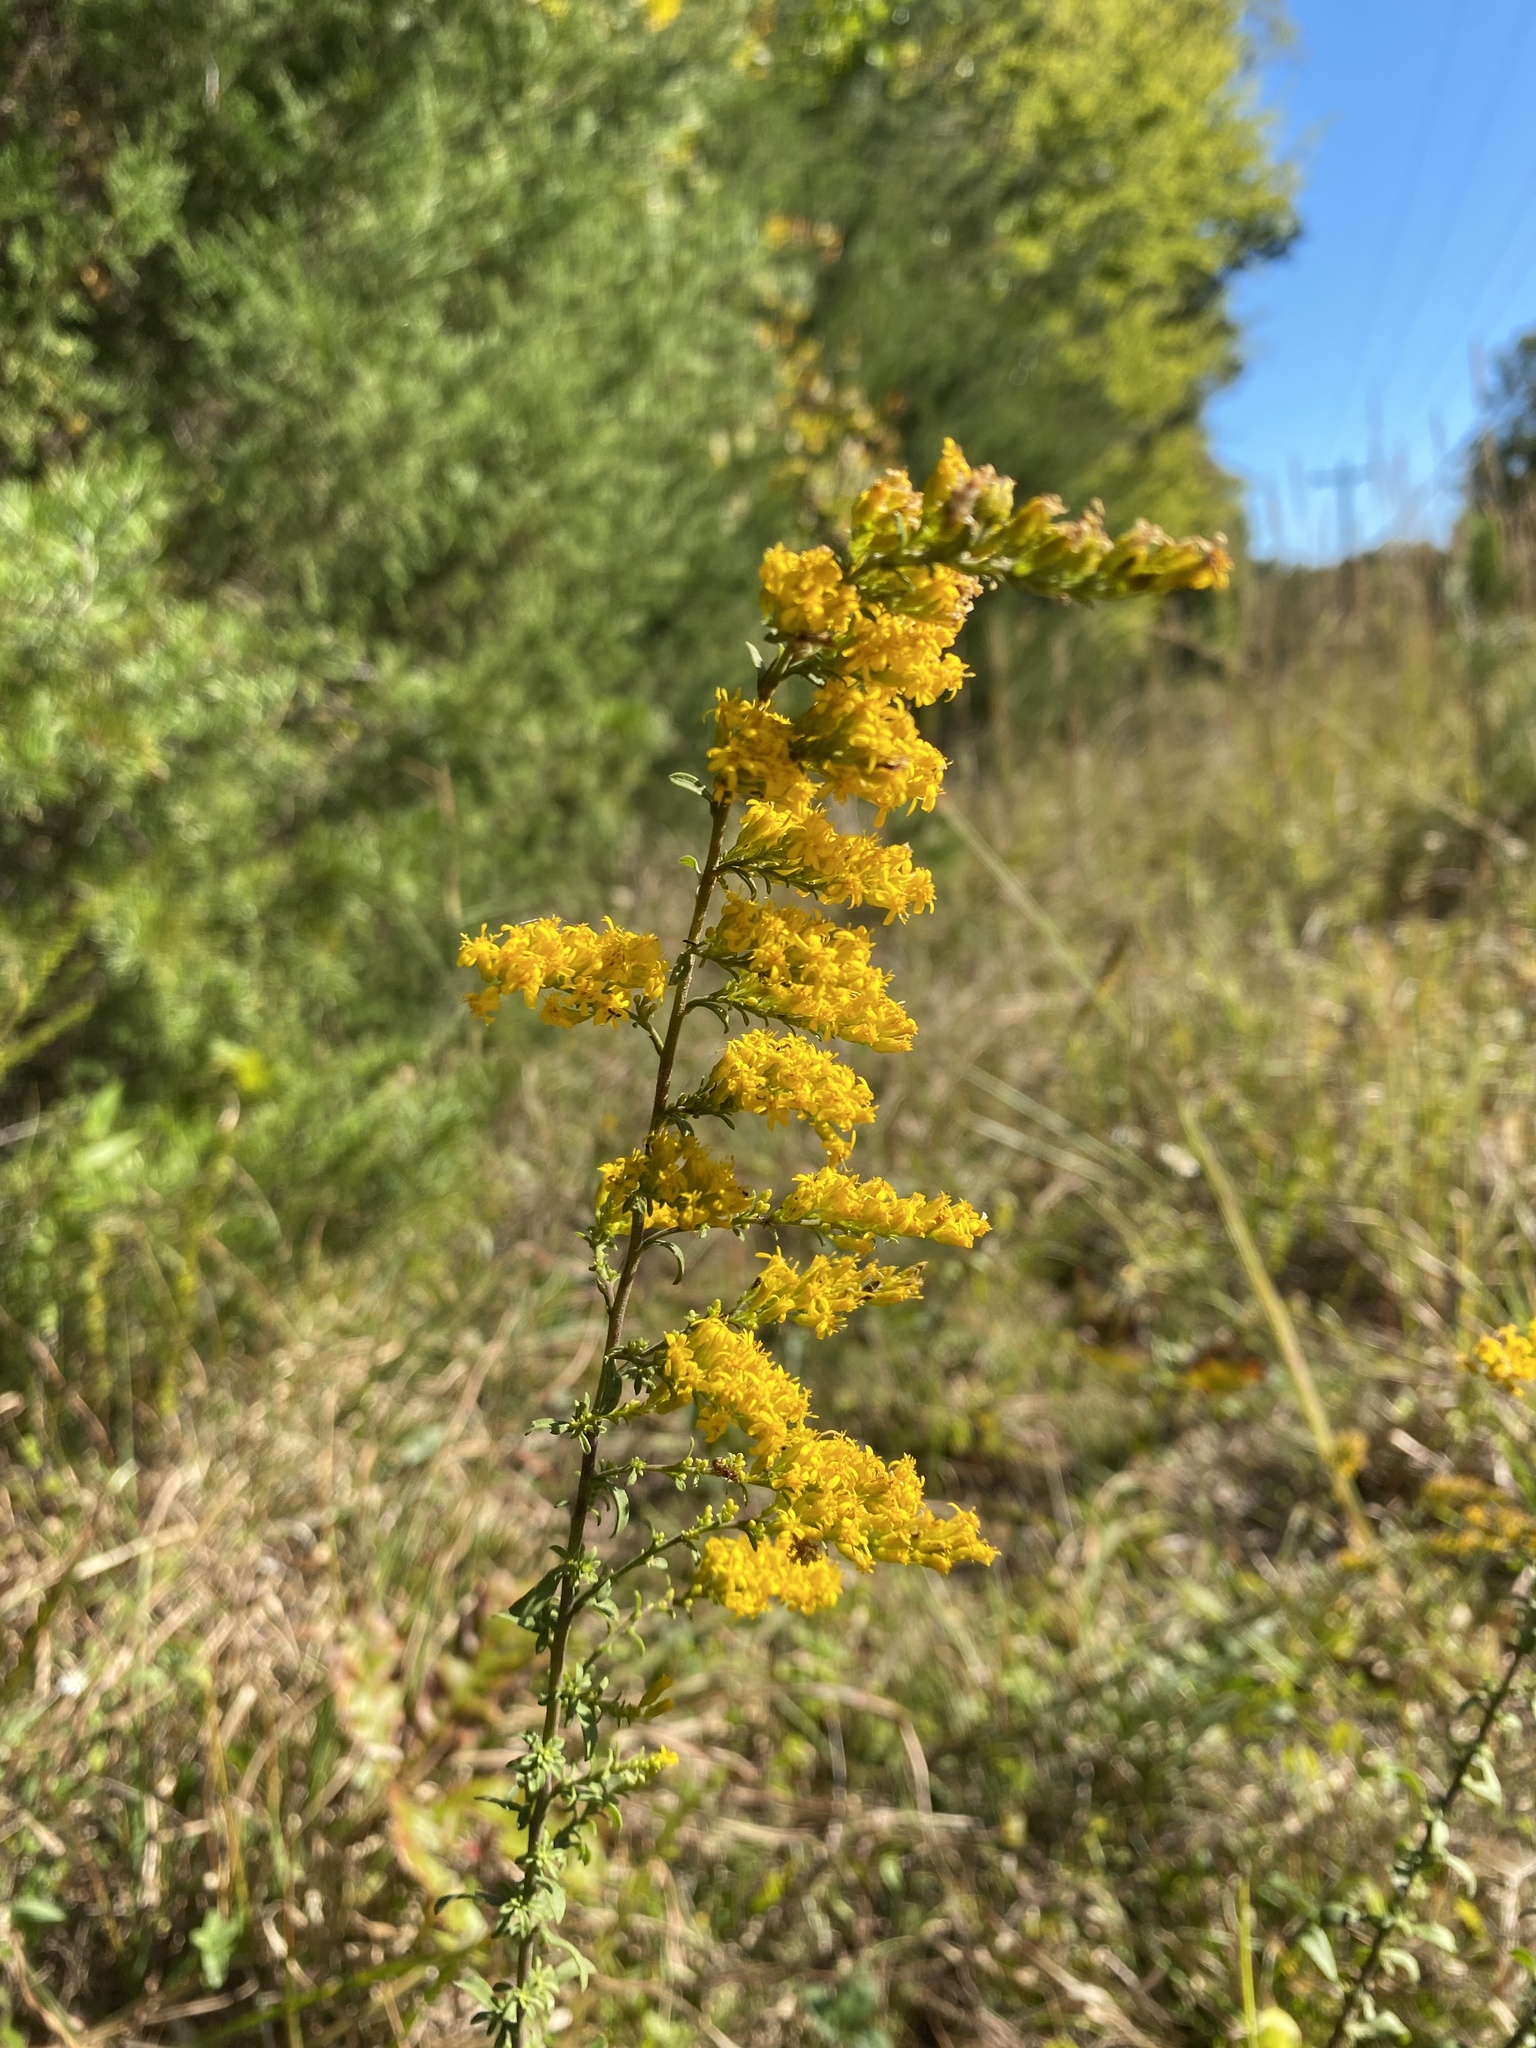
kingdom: Plantae
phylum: Tracheophyta
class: Magnoliopsida
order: Asterales
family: Asteraceae
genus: Solidago
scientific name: Solidago nemoralis
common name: Grey goldenrod
